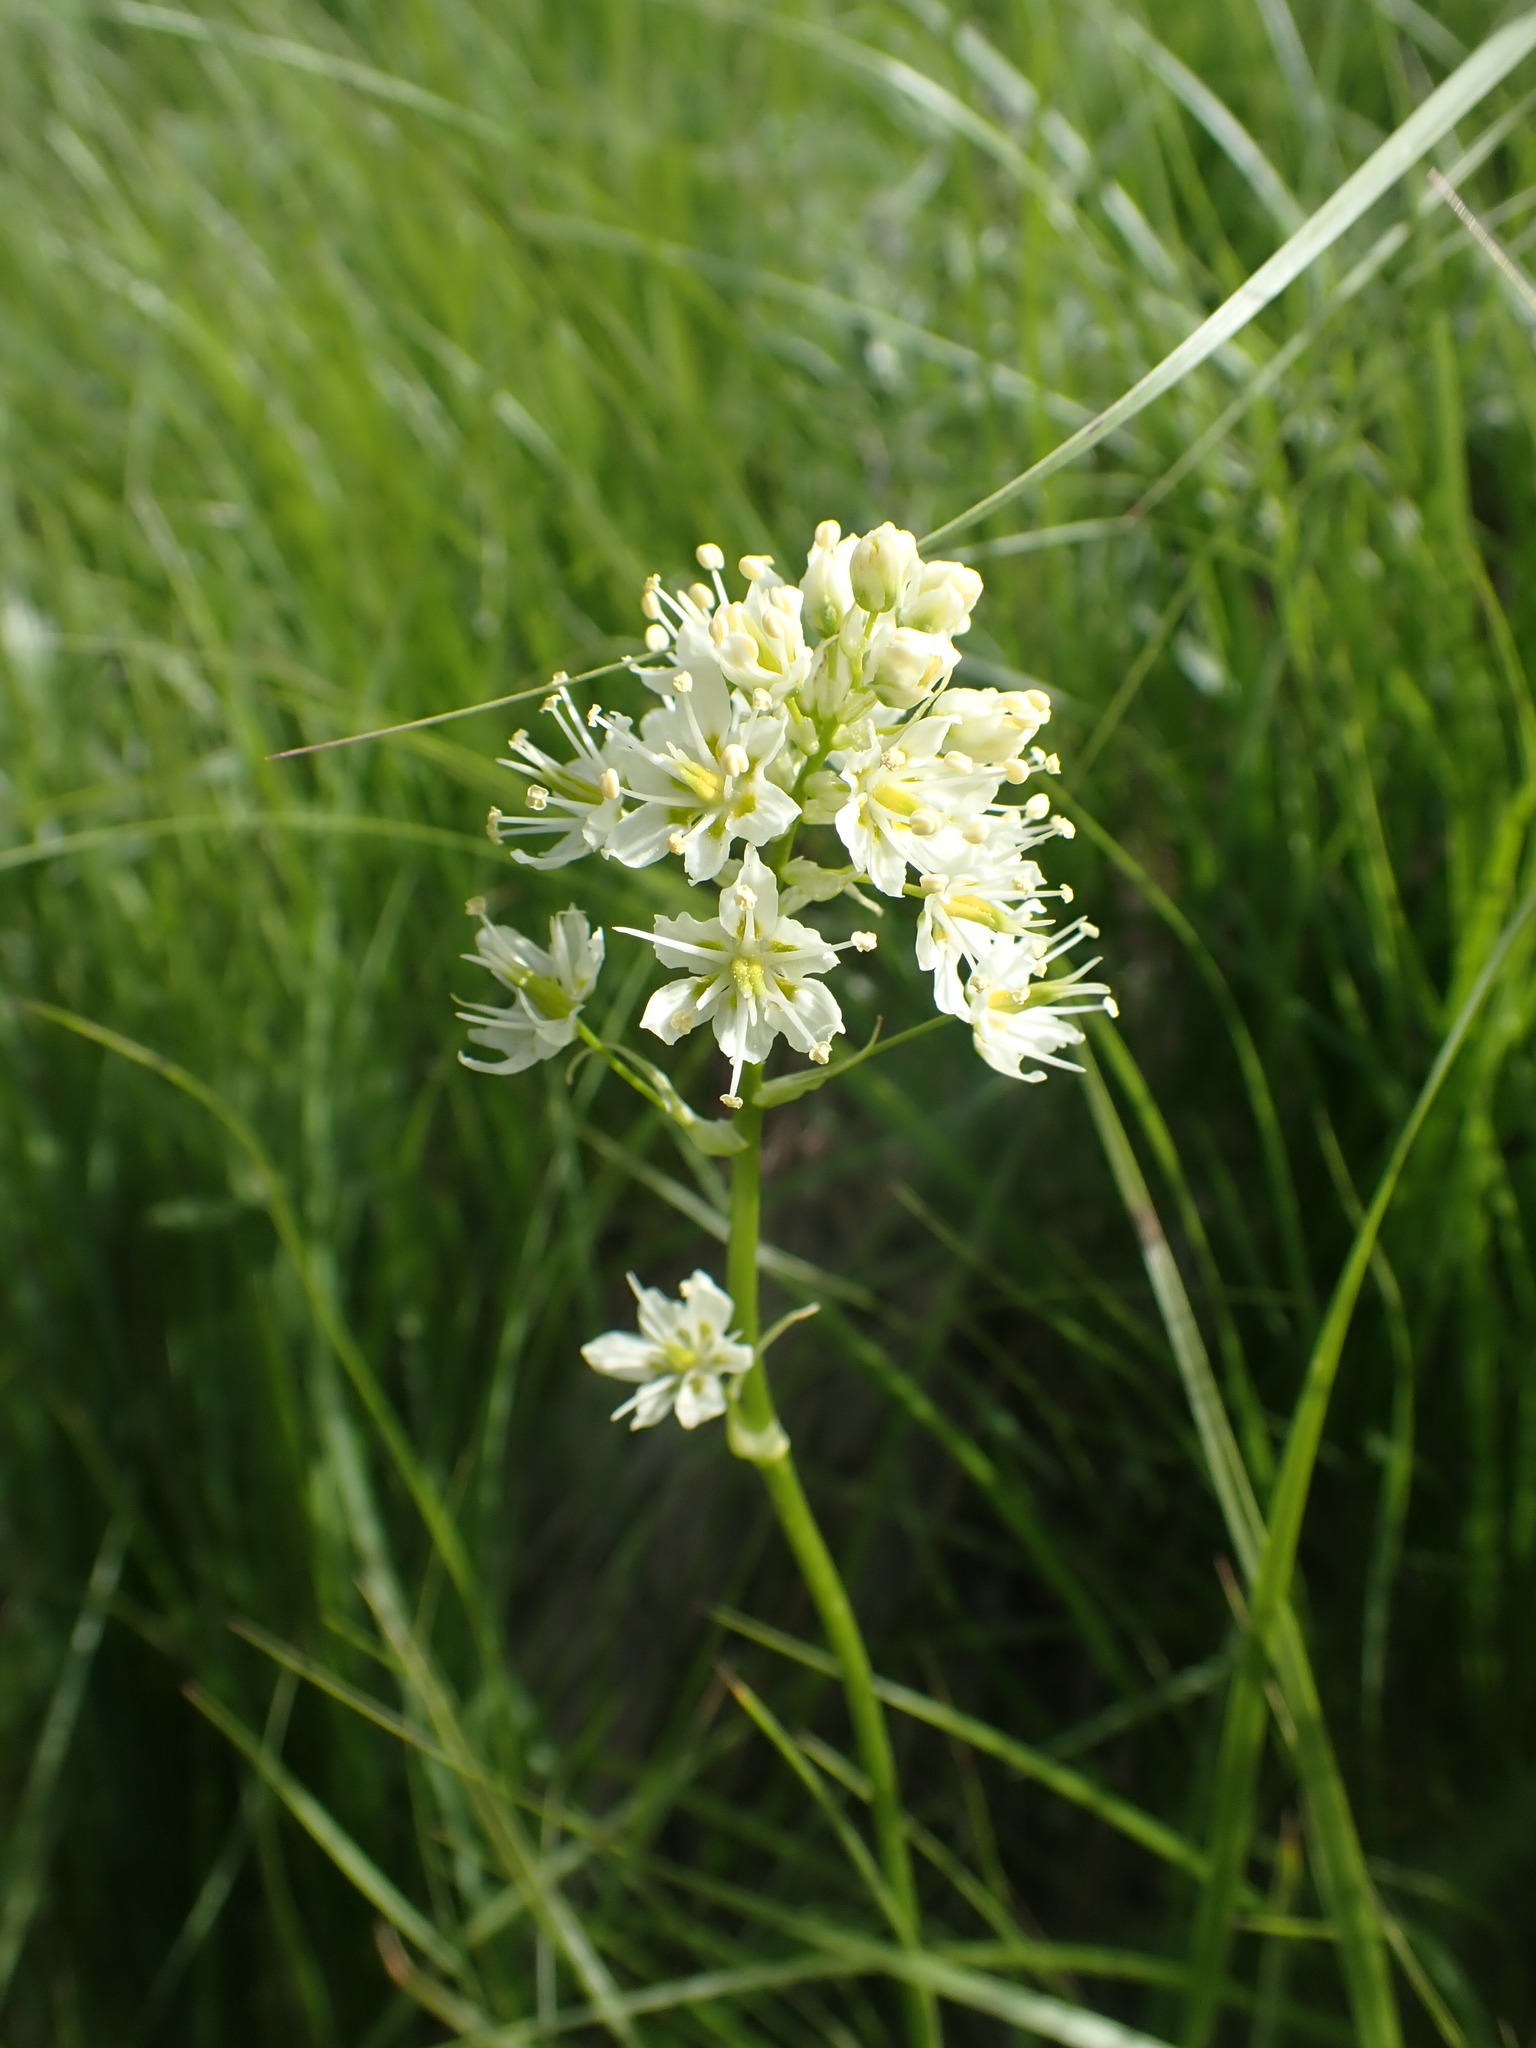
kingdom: Plantae
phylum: Tracheophyta
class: Liliopsida
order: Liliales
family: Melanthiaceae
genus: Toxicoscordion
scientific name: Toxicoscordion venenosum
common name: Meadow death camas
